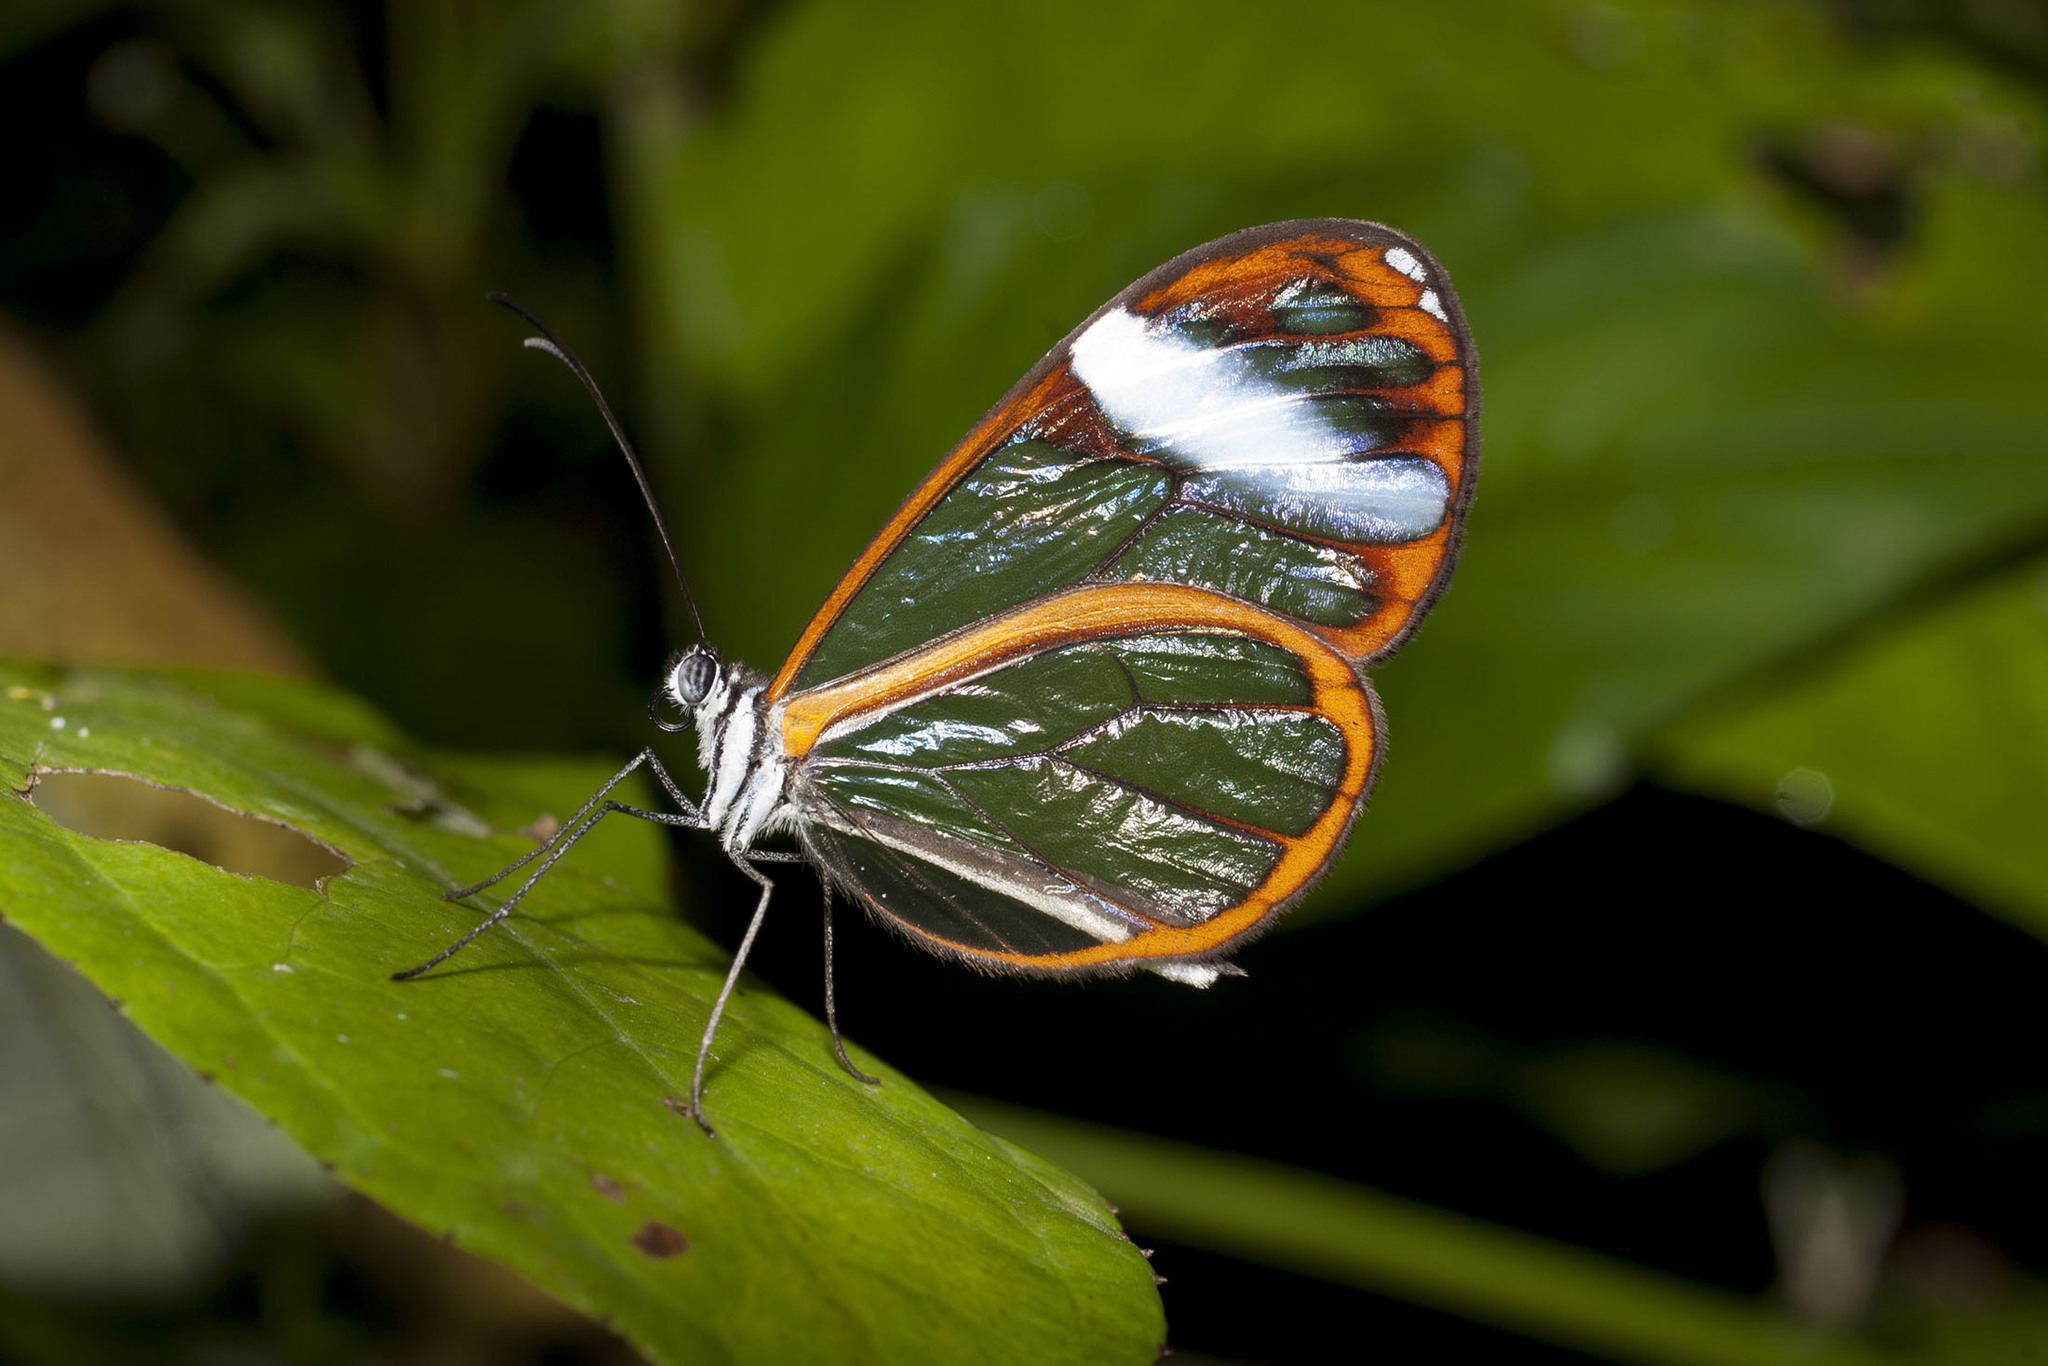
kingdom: Animalia
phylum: Arthropoda
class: Insecta
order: Lepidoptera
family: Nymphalidae
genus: Greta
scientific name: Greta andromica
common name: Andromica clearwing
